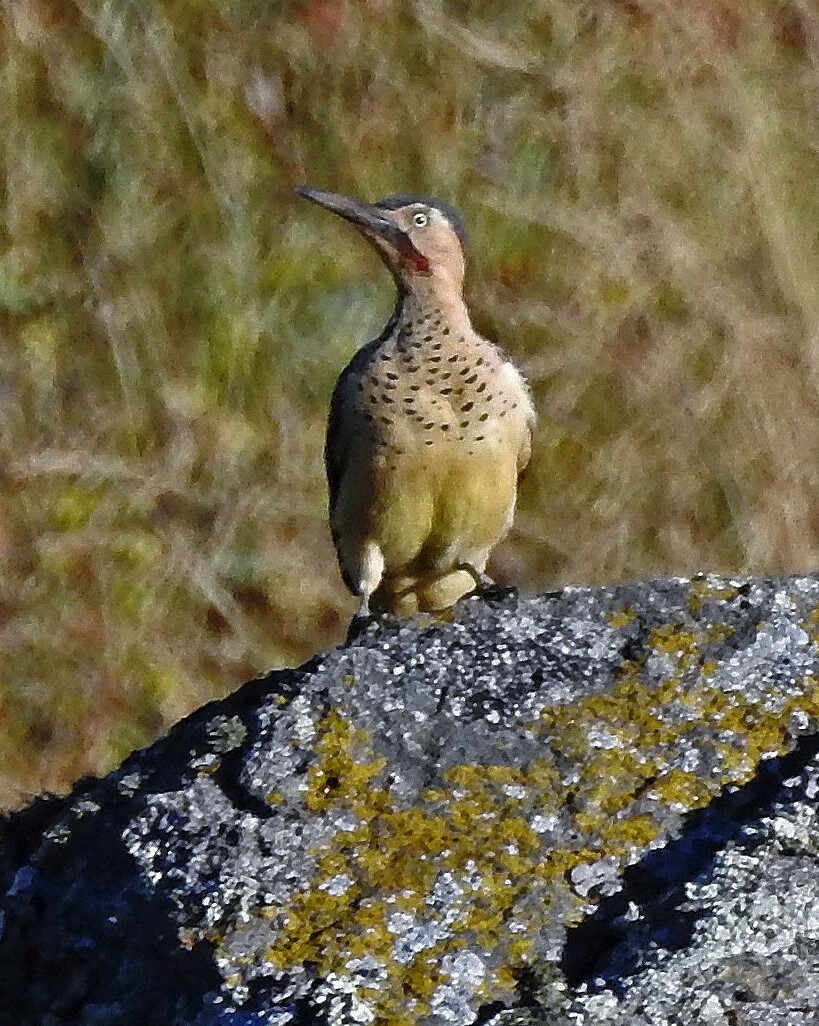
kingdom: Animalia
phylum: Chordata
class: Aves
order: Piciformes
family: Picidae
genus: Colaptes
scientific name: Colaptes rupicola
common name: Andean flicker
